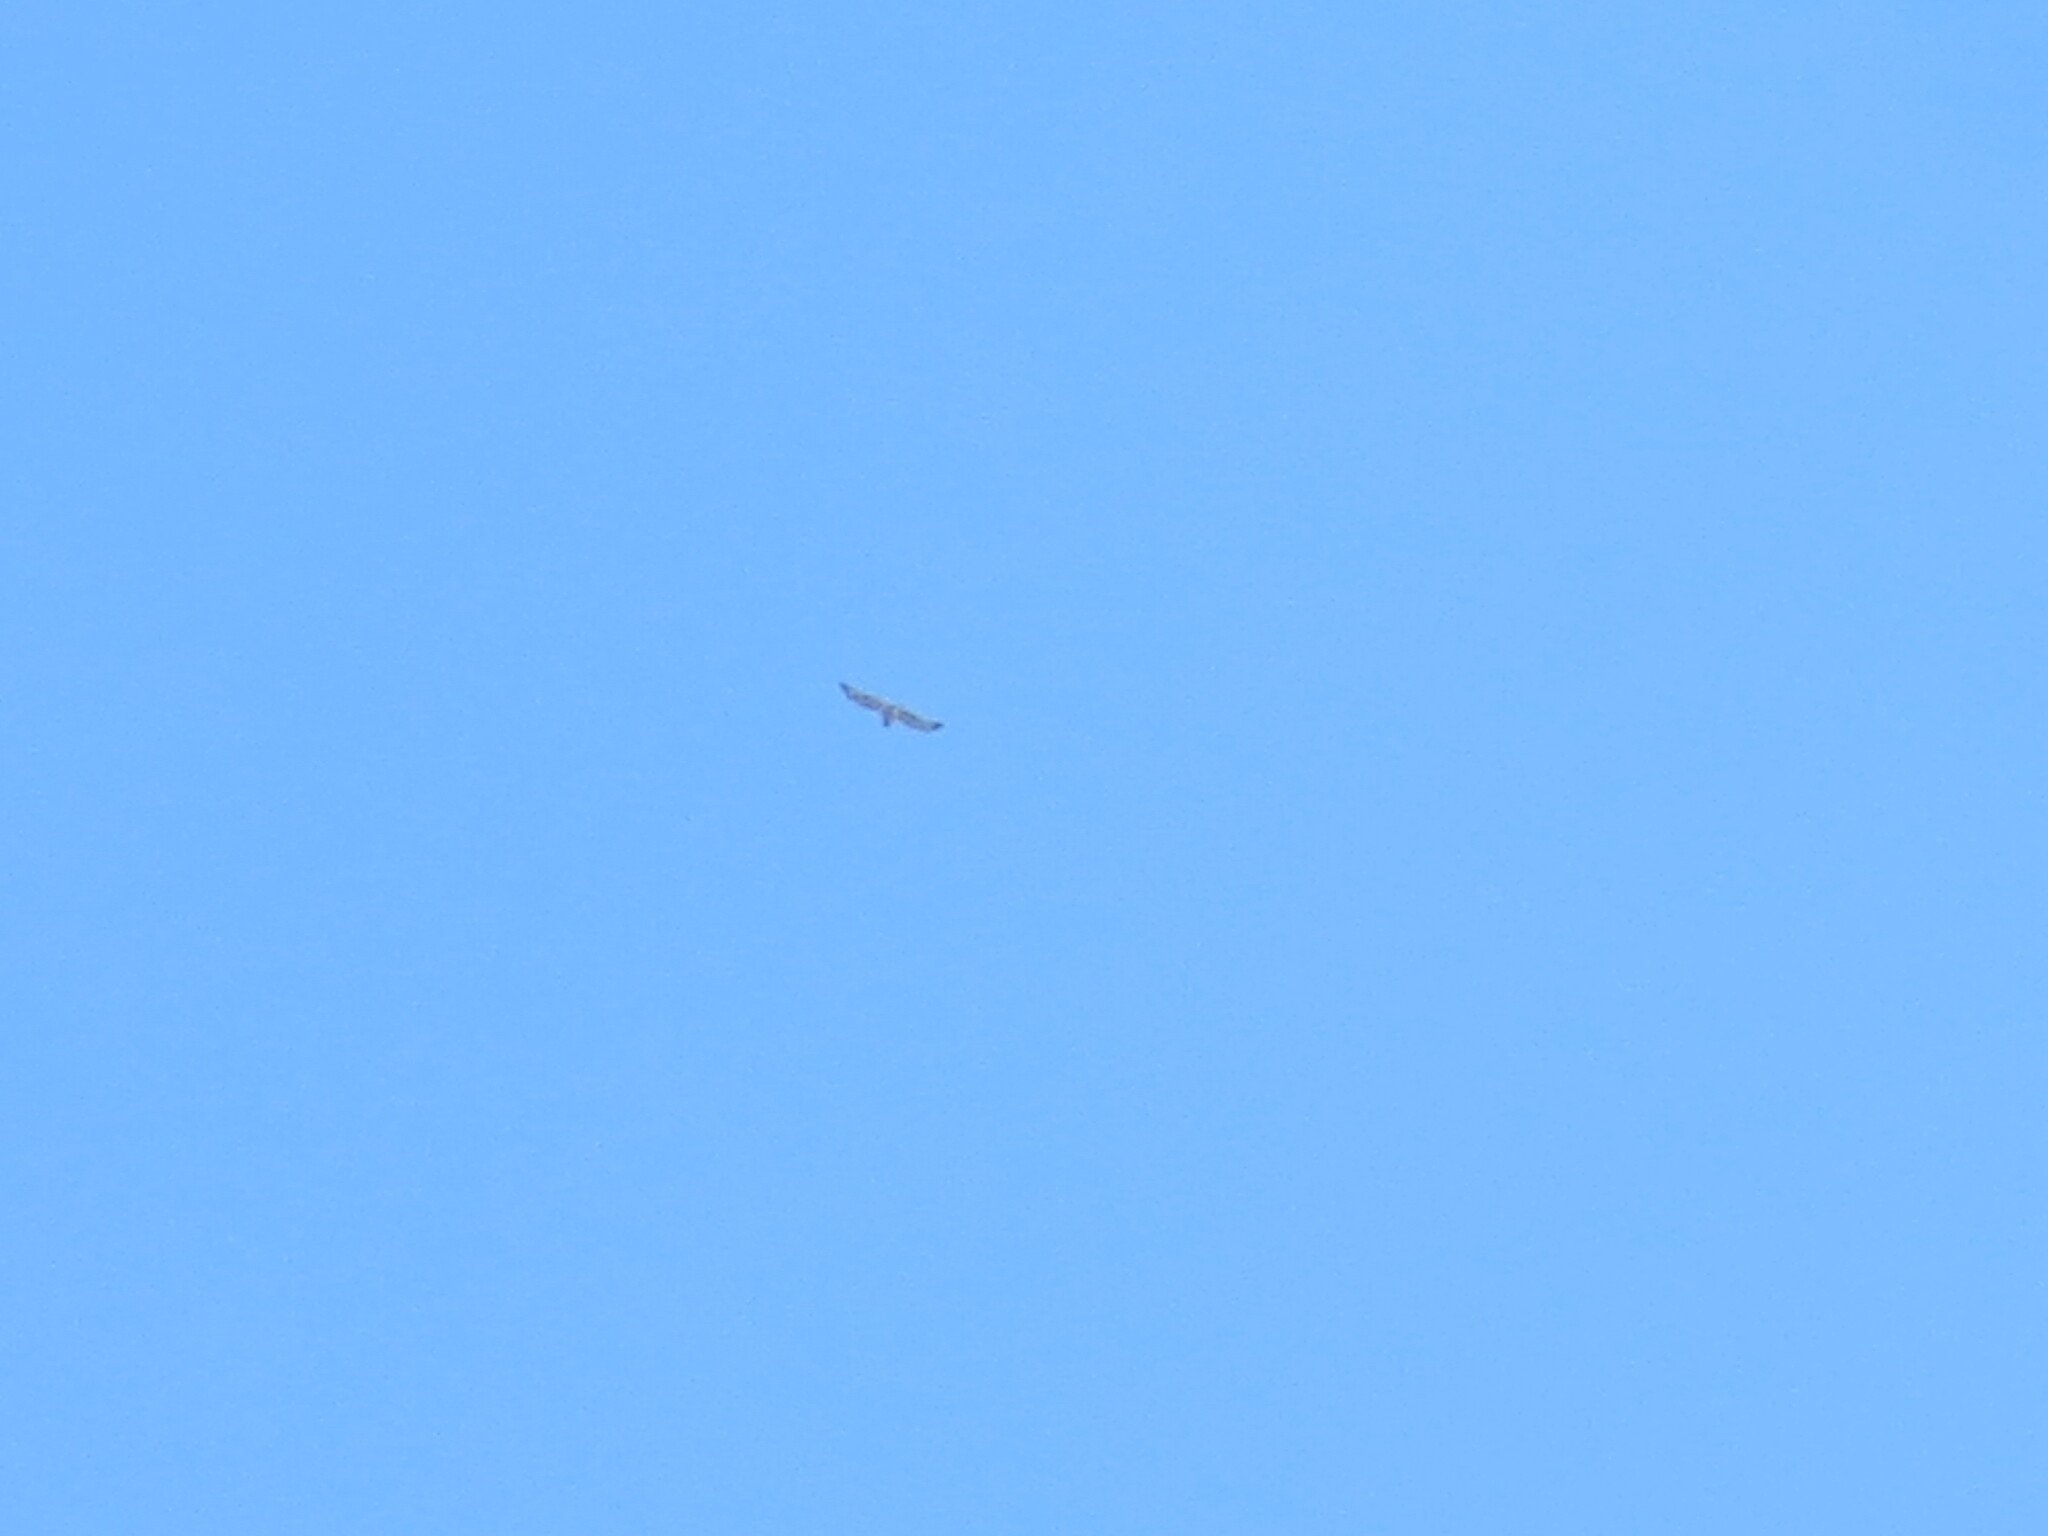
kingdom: Animalia
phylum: Chordata
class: Aves
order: Accipitriformes
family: Accipitridae
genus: Buteo
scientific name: Buteo jamaicensis
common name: Red-tailed hawk
